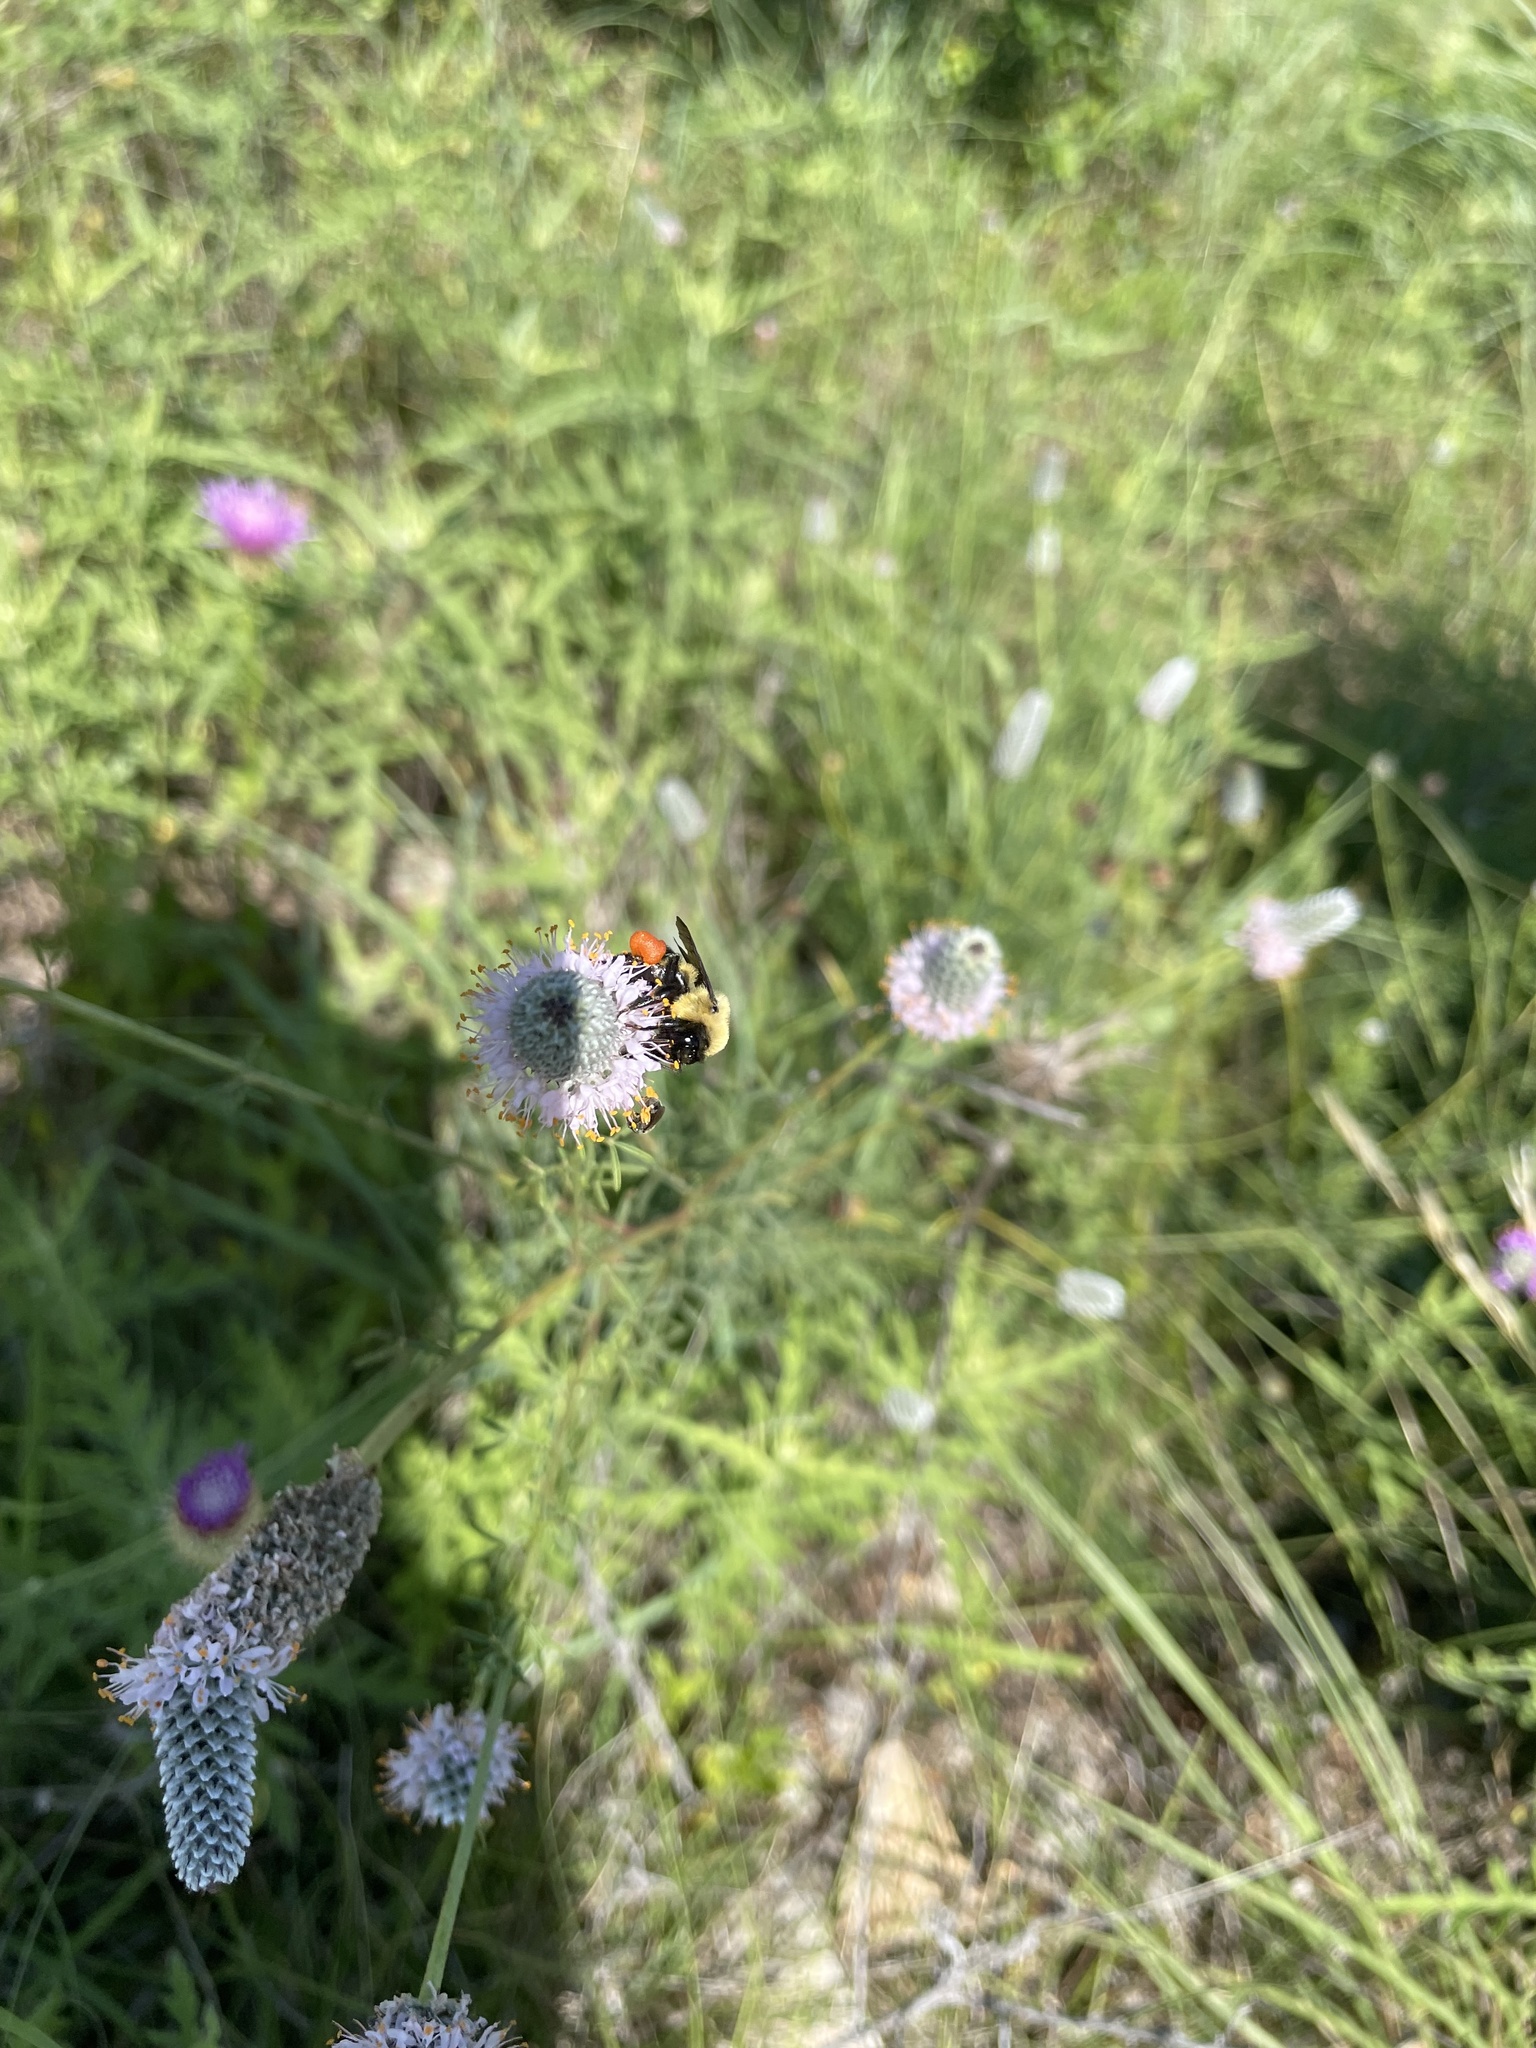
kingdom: Animalia
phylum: Arthropoda
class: Insecta
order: Hymenoptera
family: Apidae
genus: Bombus
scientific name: Bombus griseocollis
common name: Brown-belted bumble bee
